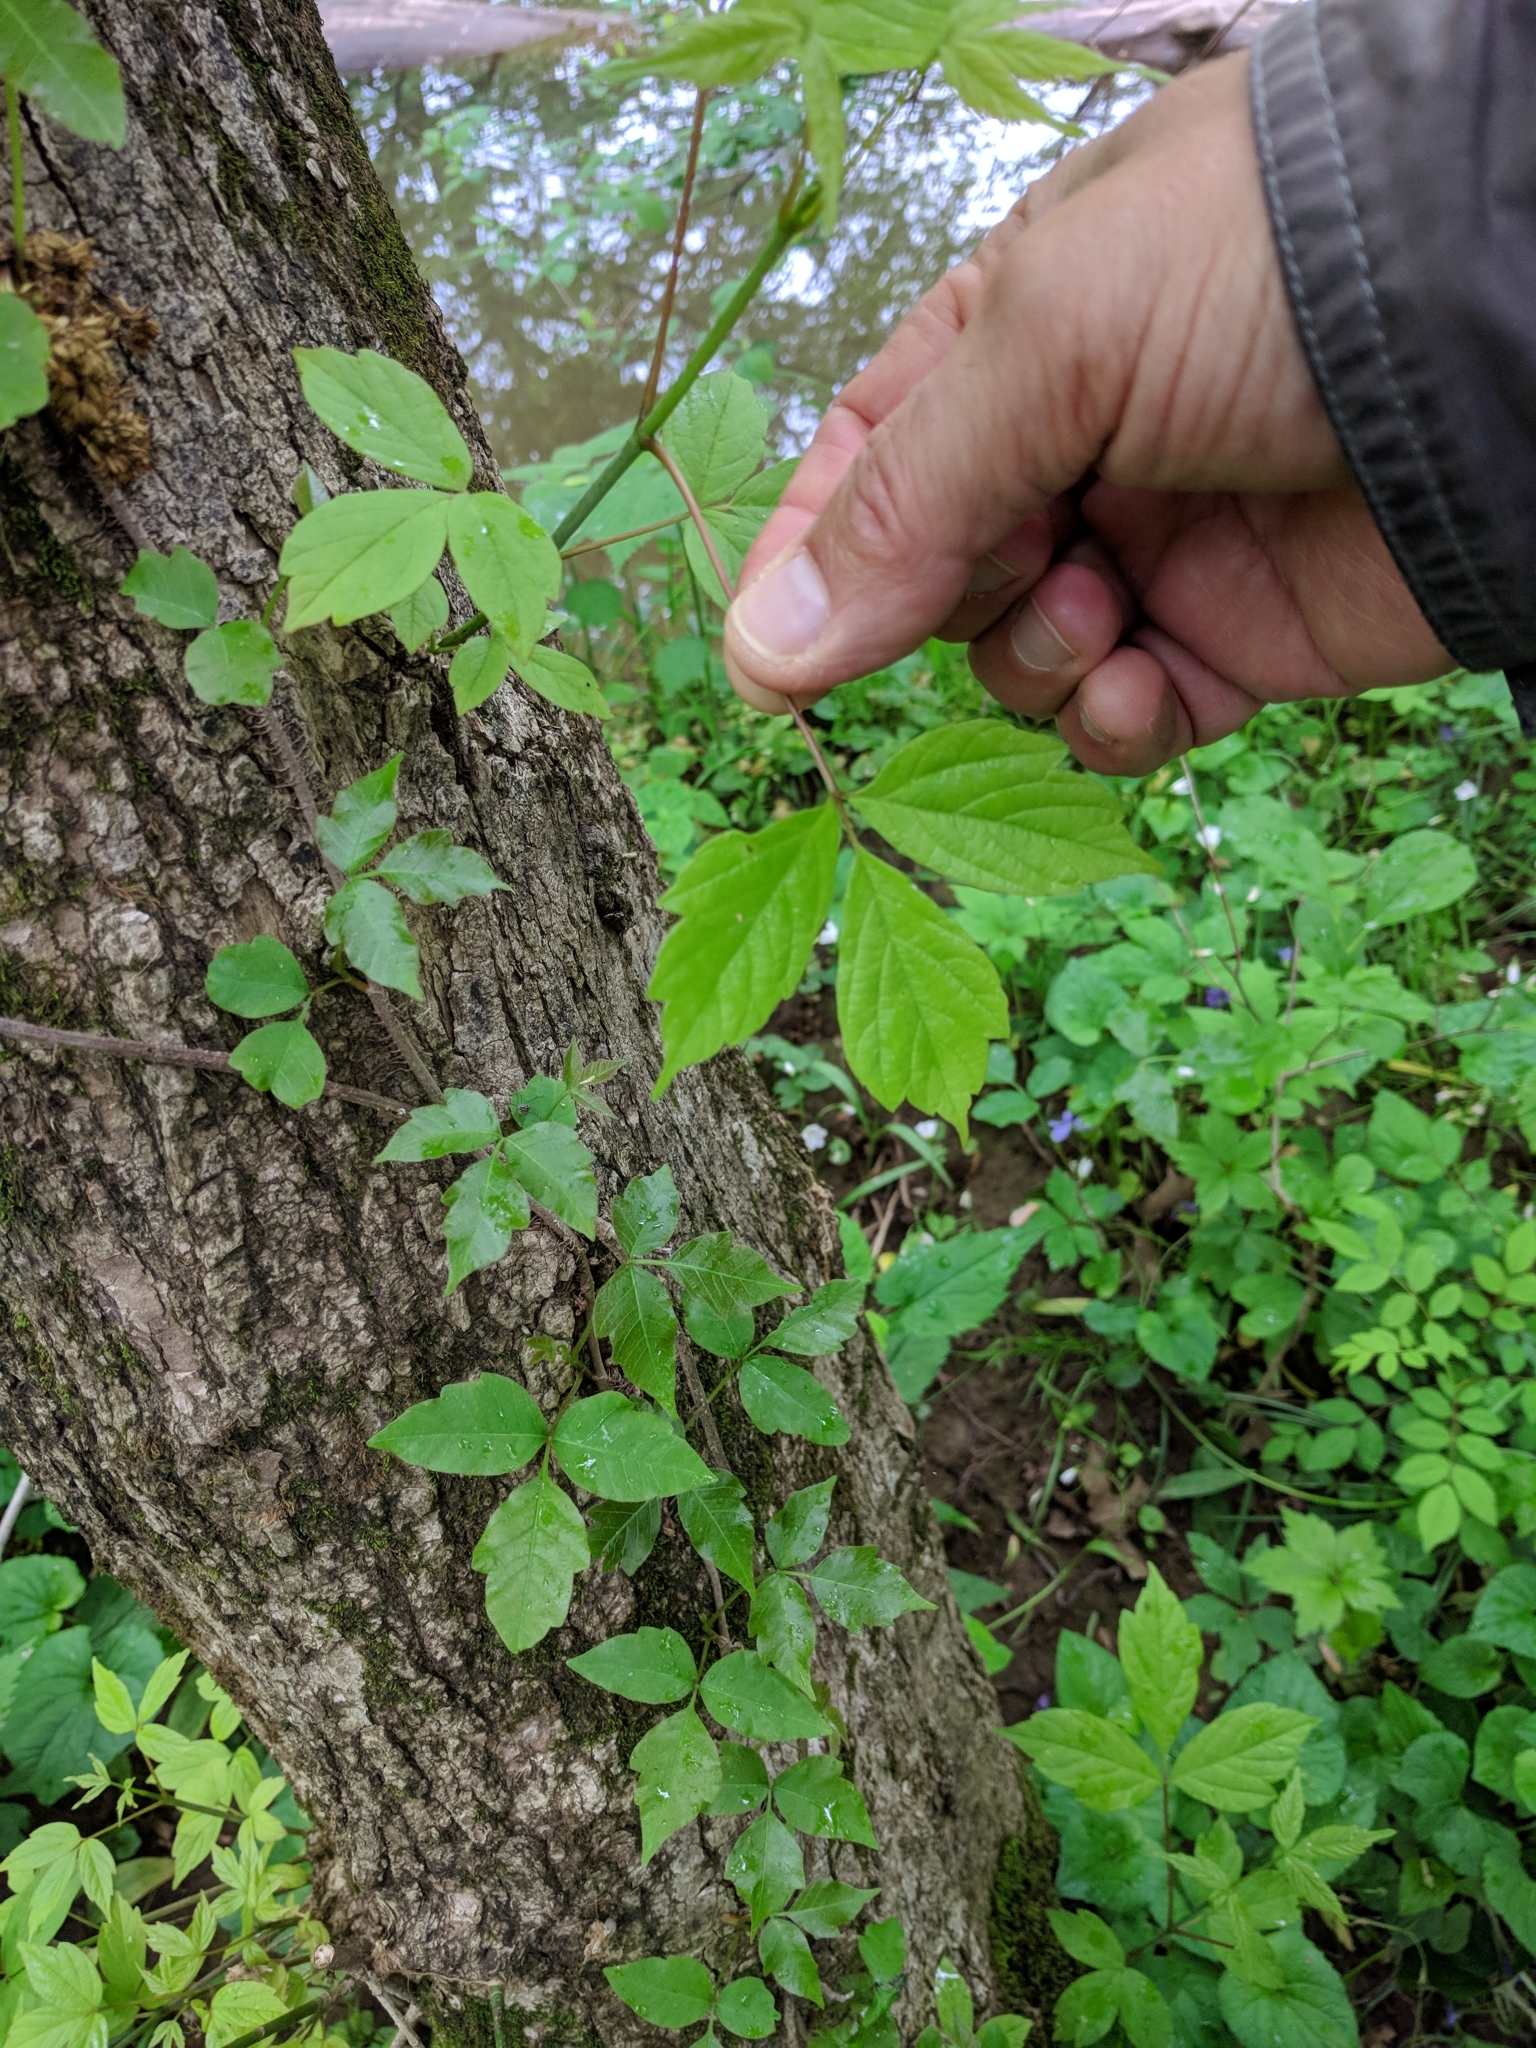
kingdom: Plantae
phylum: Tracheophyta
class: Magnoliopsida
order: Sapindales
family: Sapindaceae
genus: Acer
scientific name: Acer negundo
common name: Ashleaf maple
